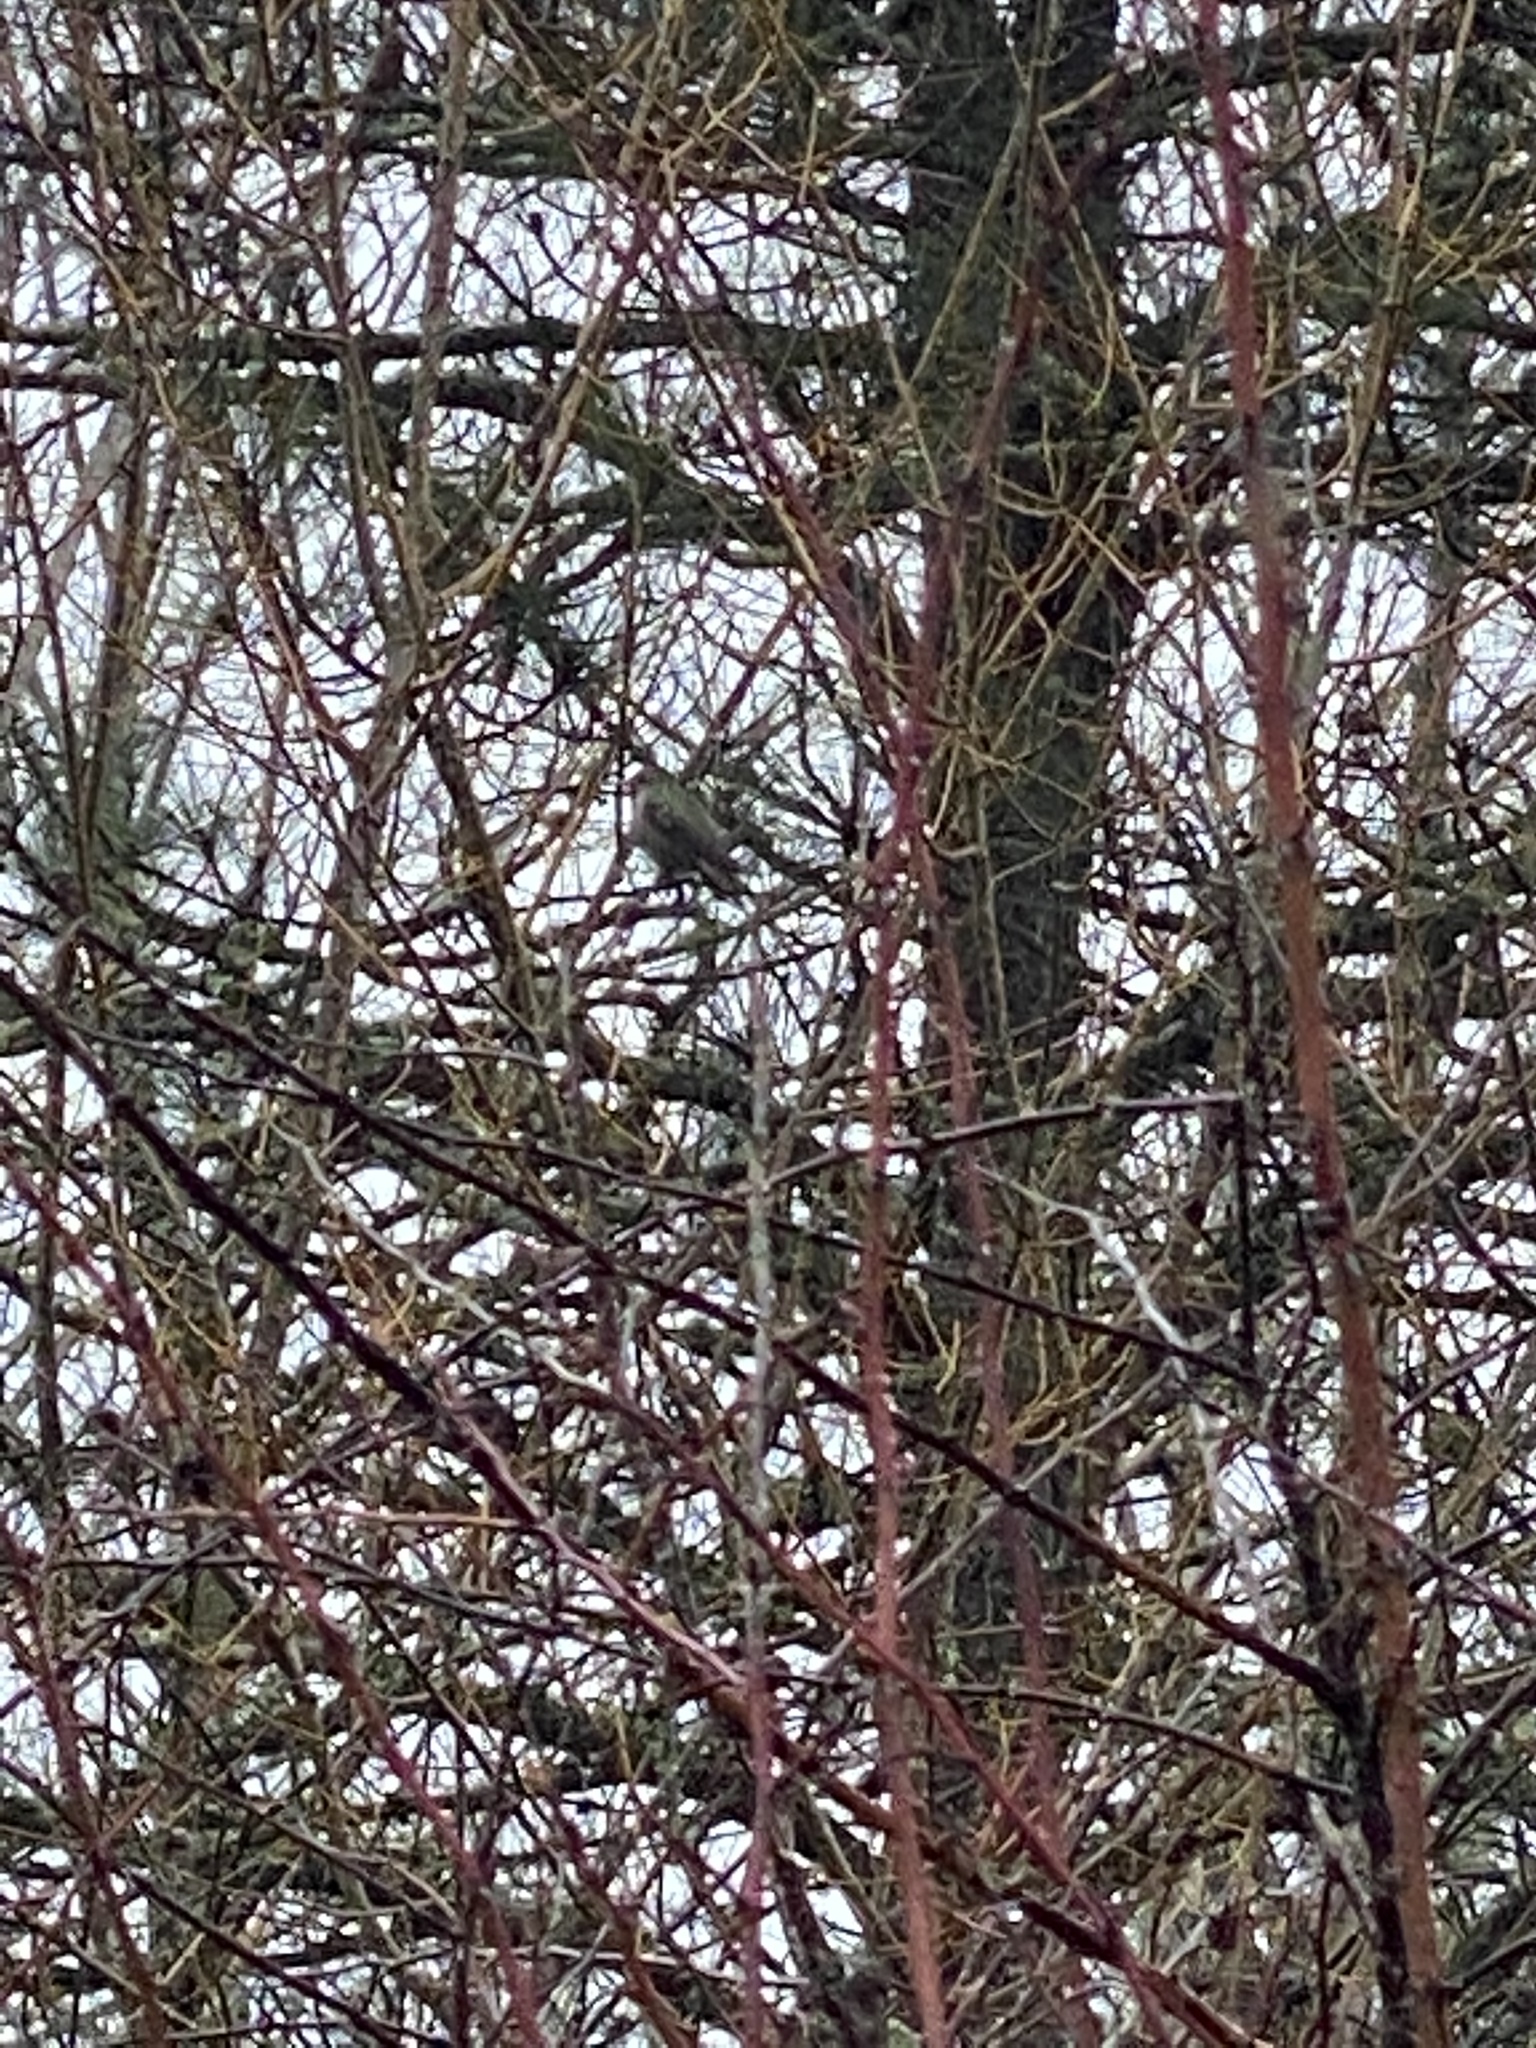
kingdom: Animalia
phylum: Chordata
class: Aves
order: Apodiformes
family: Trochilidae
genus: Calypte
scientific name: Calypte anna
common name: Anna's hummingbird
